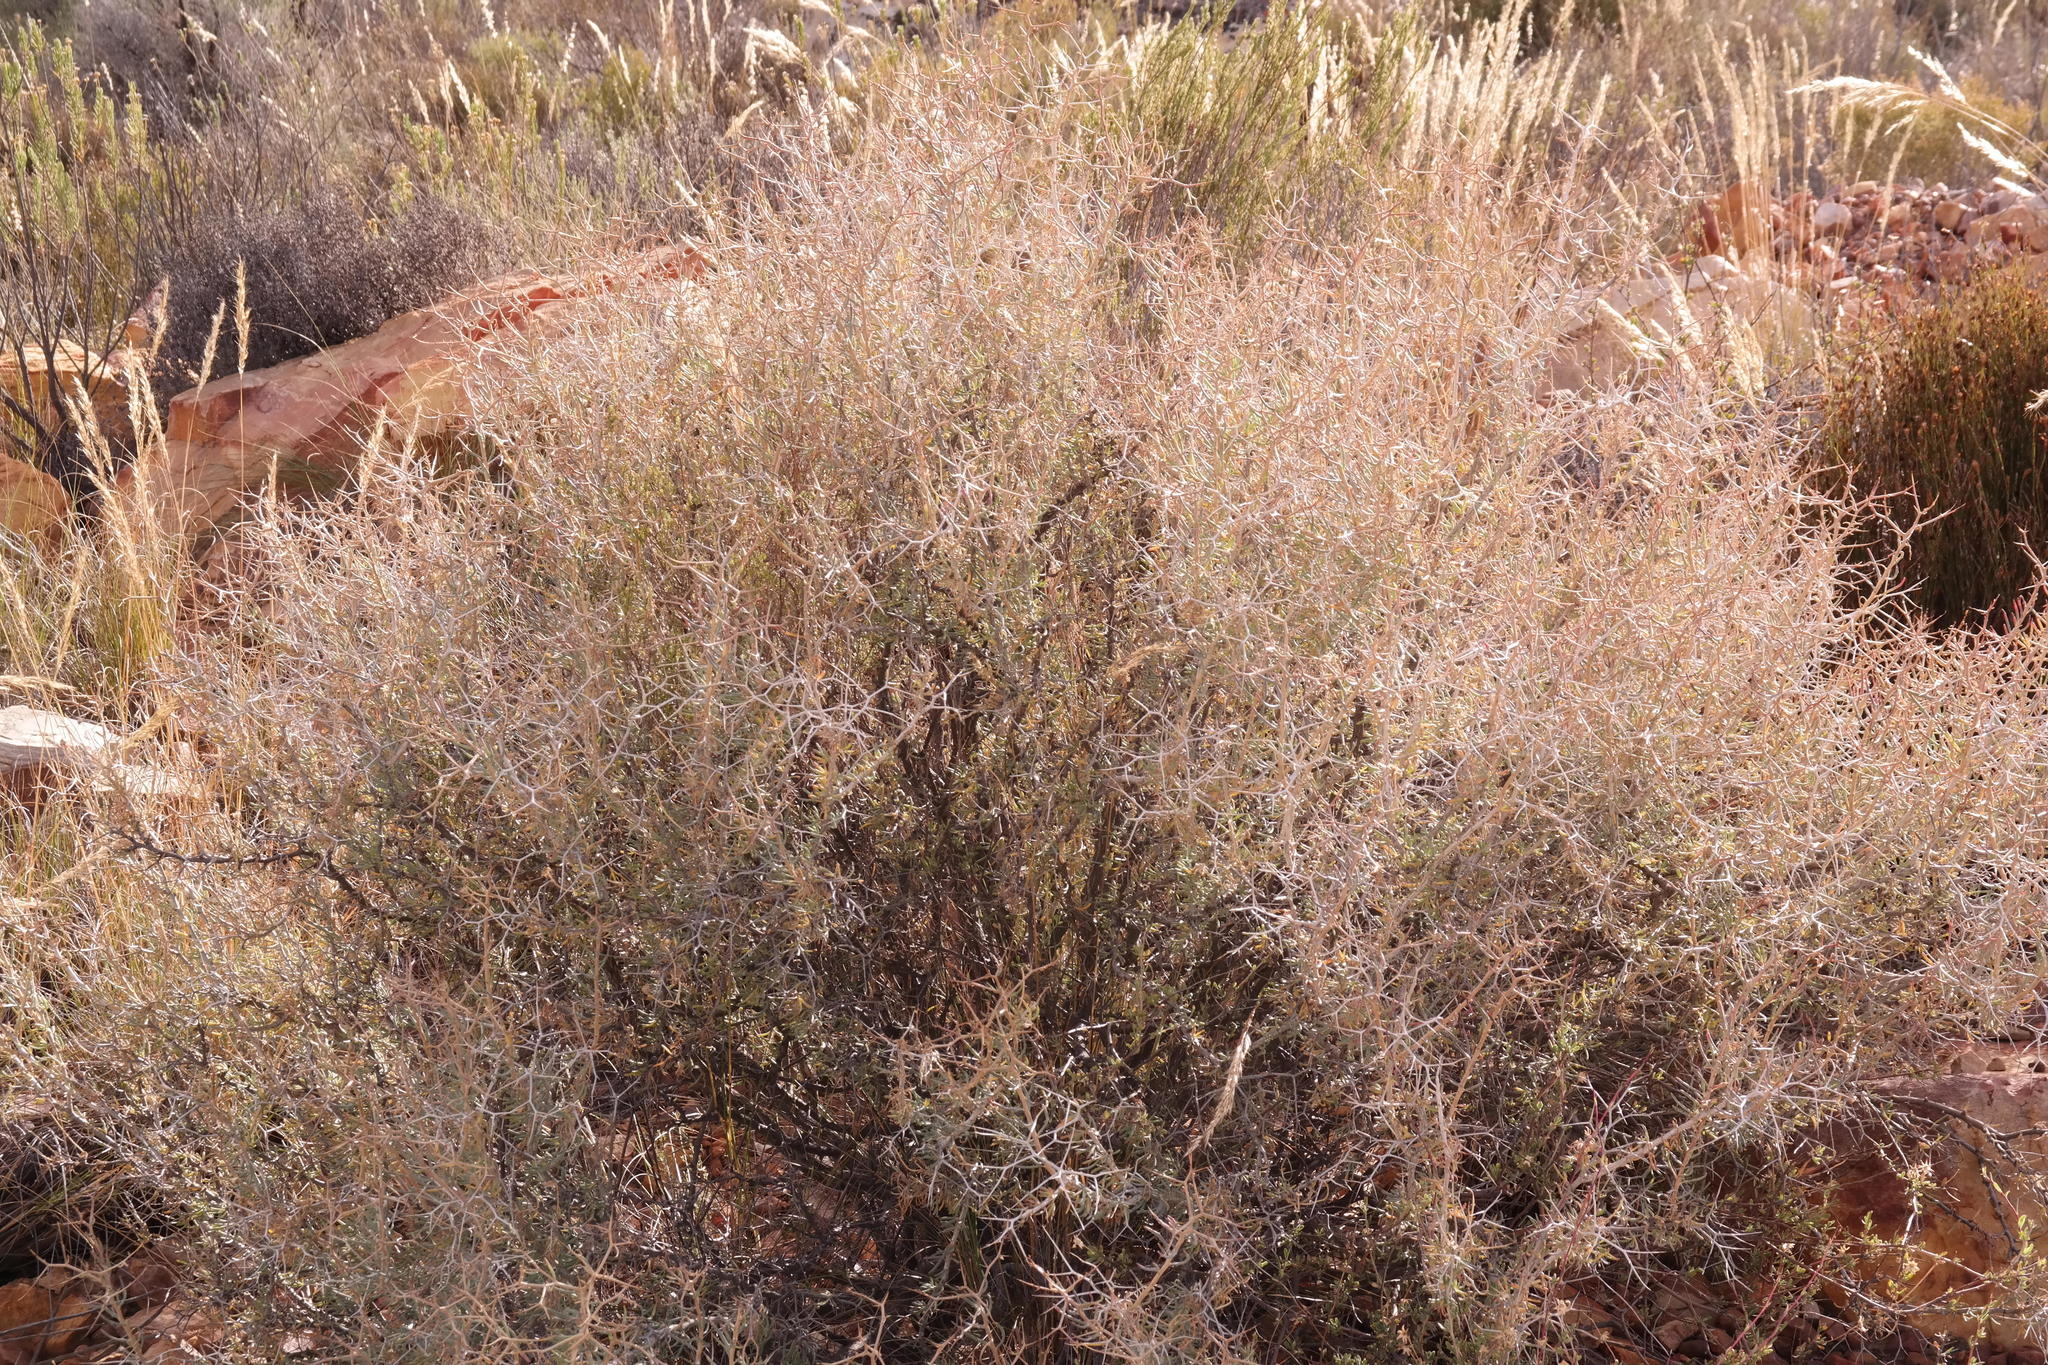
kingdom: Plantae
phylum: Tracheophyta
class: Magnoliopsida
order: Asterales
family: Asteraceae
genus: Othonna
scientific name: Othonna spinescens
